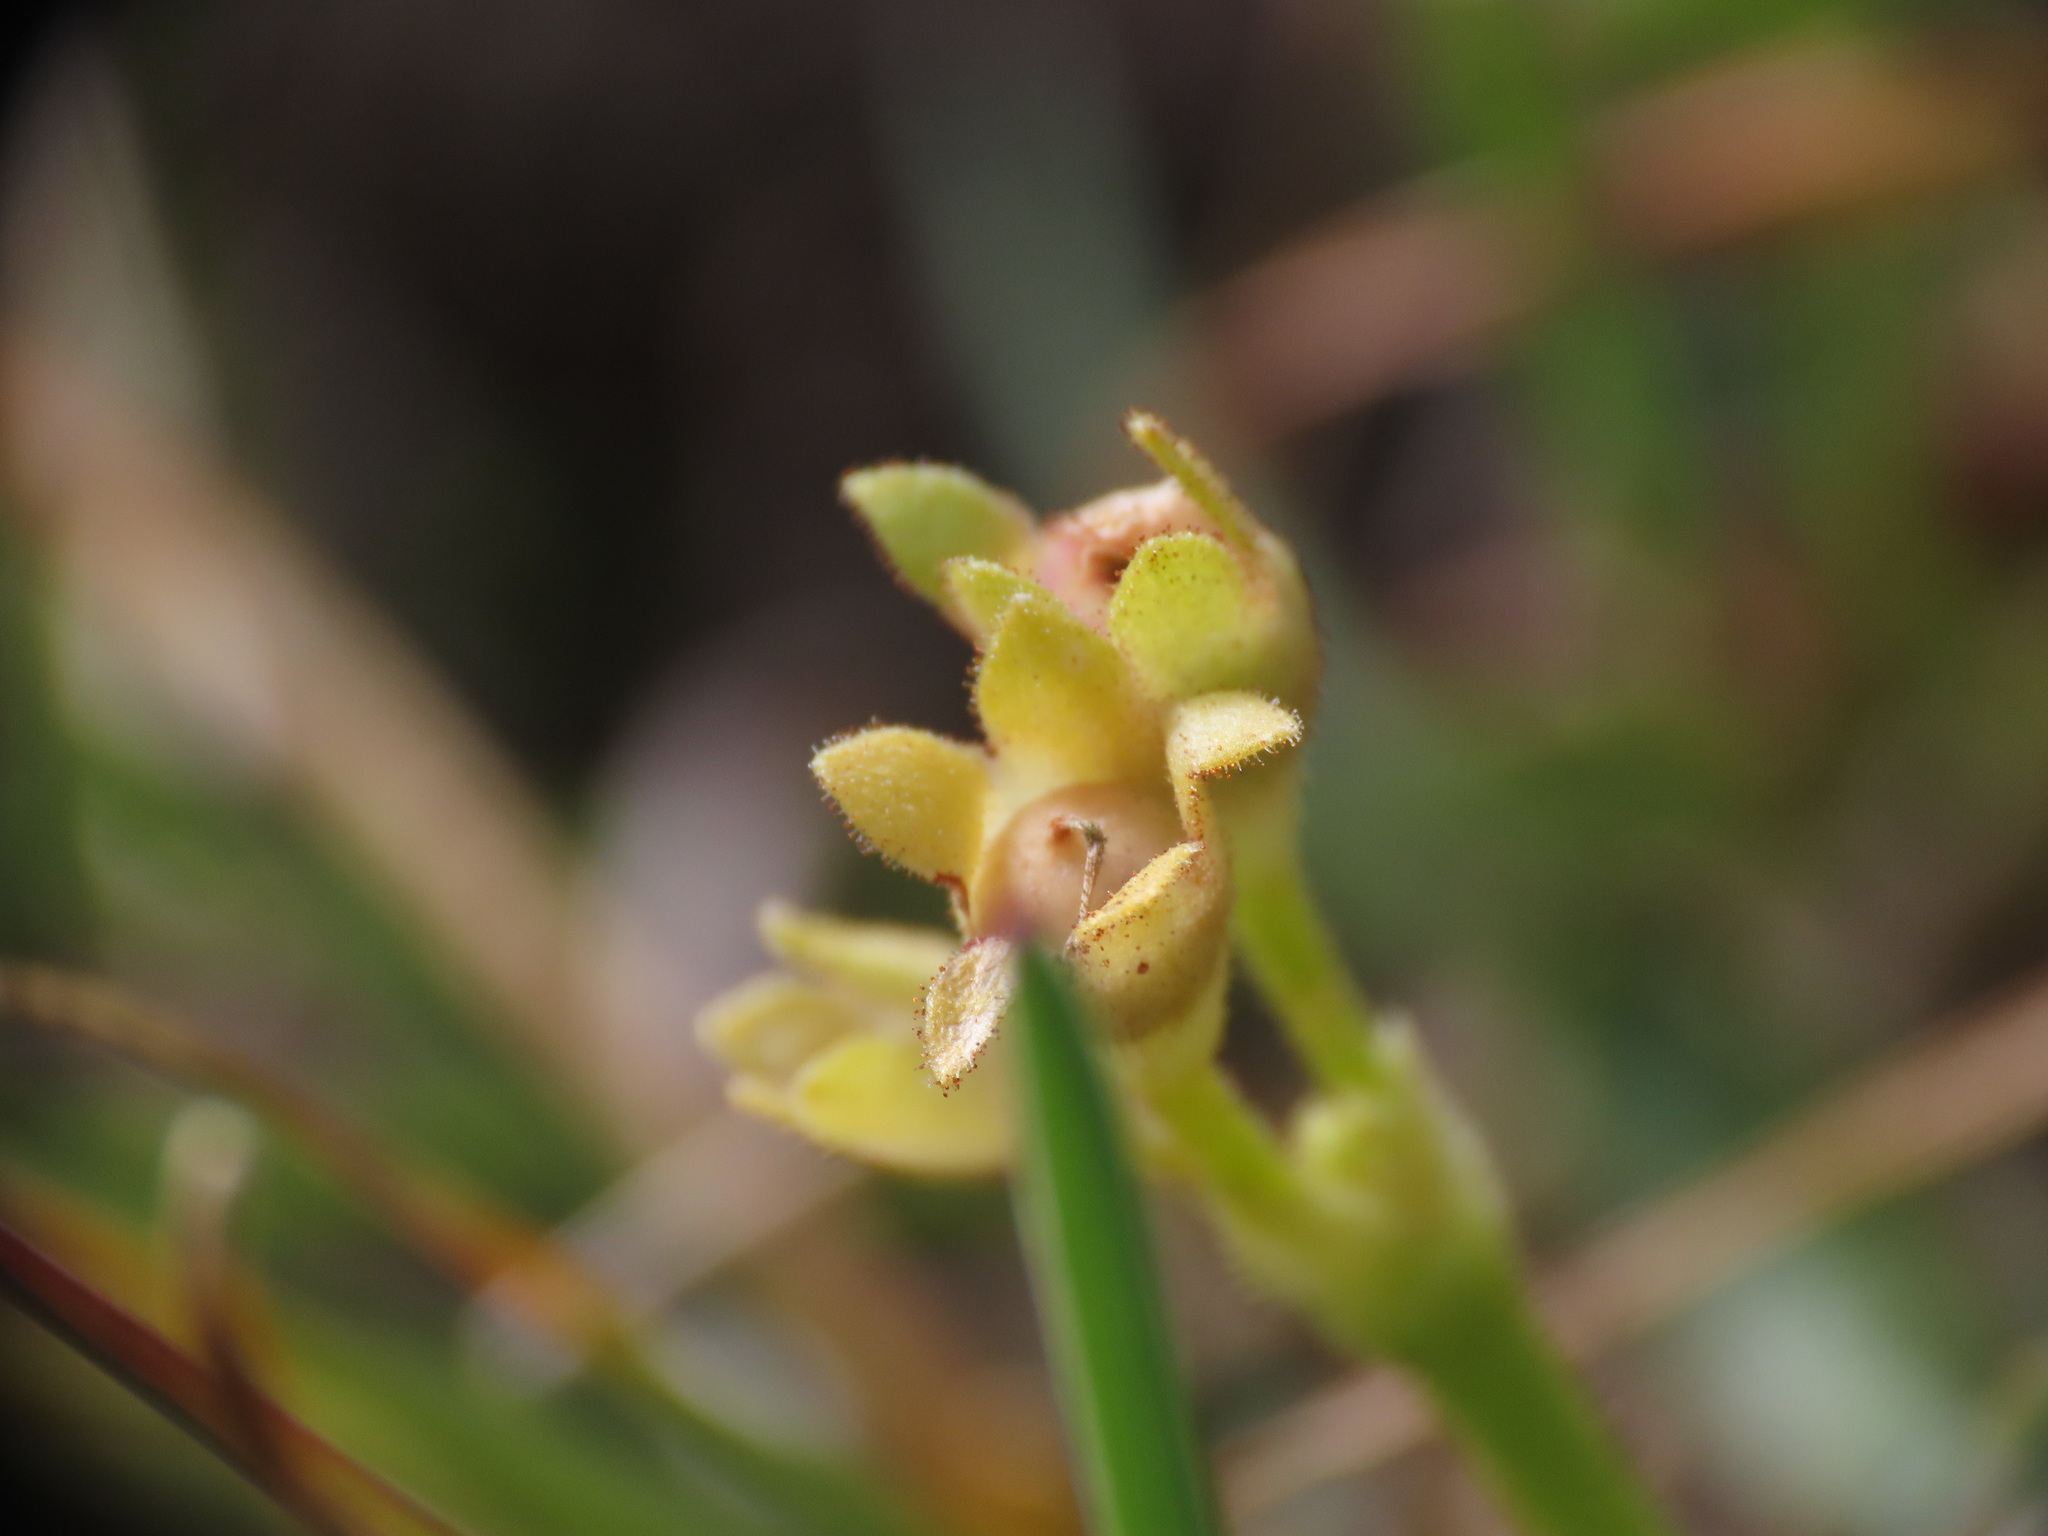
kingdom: Plantae
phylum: Tracheophyta
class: Magnoliopsida
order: Ericales
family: Primulaceae
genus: Primula
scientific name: Primula daonensis
